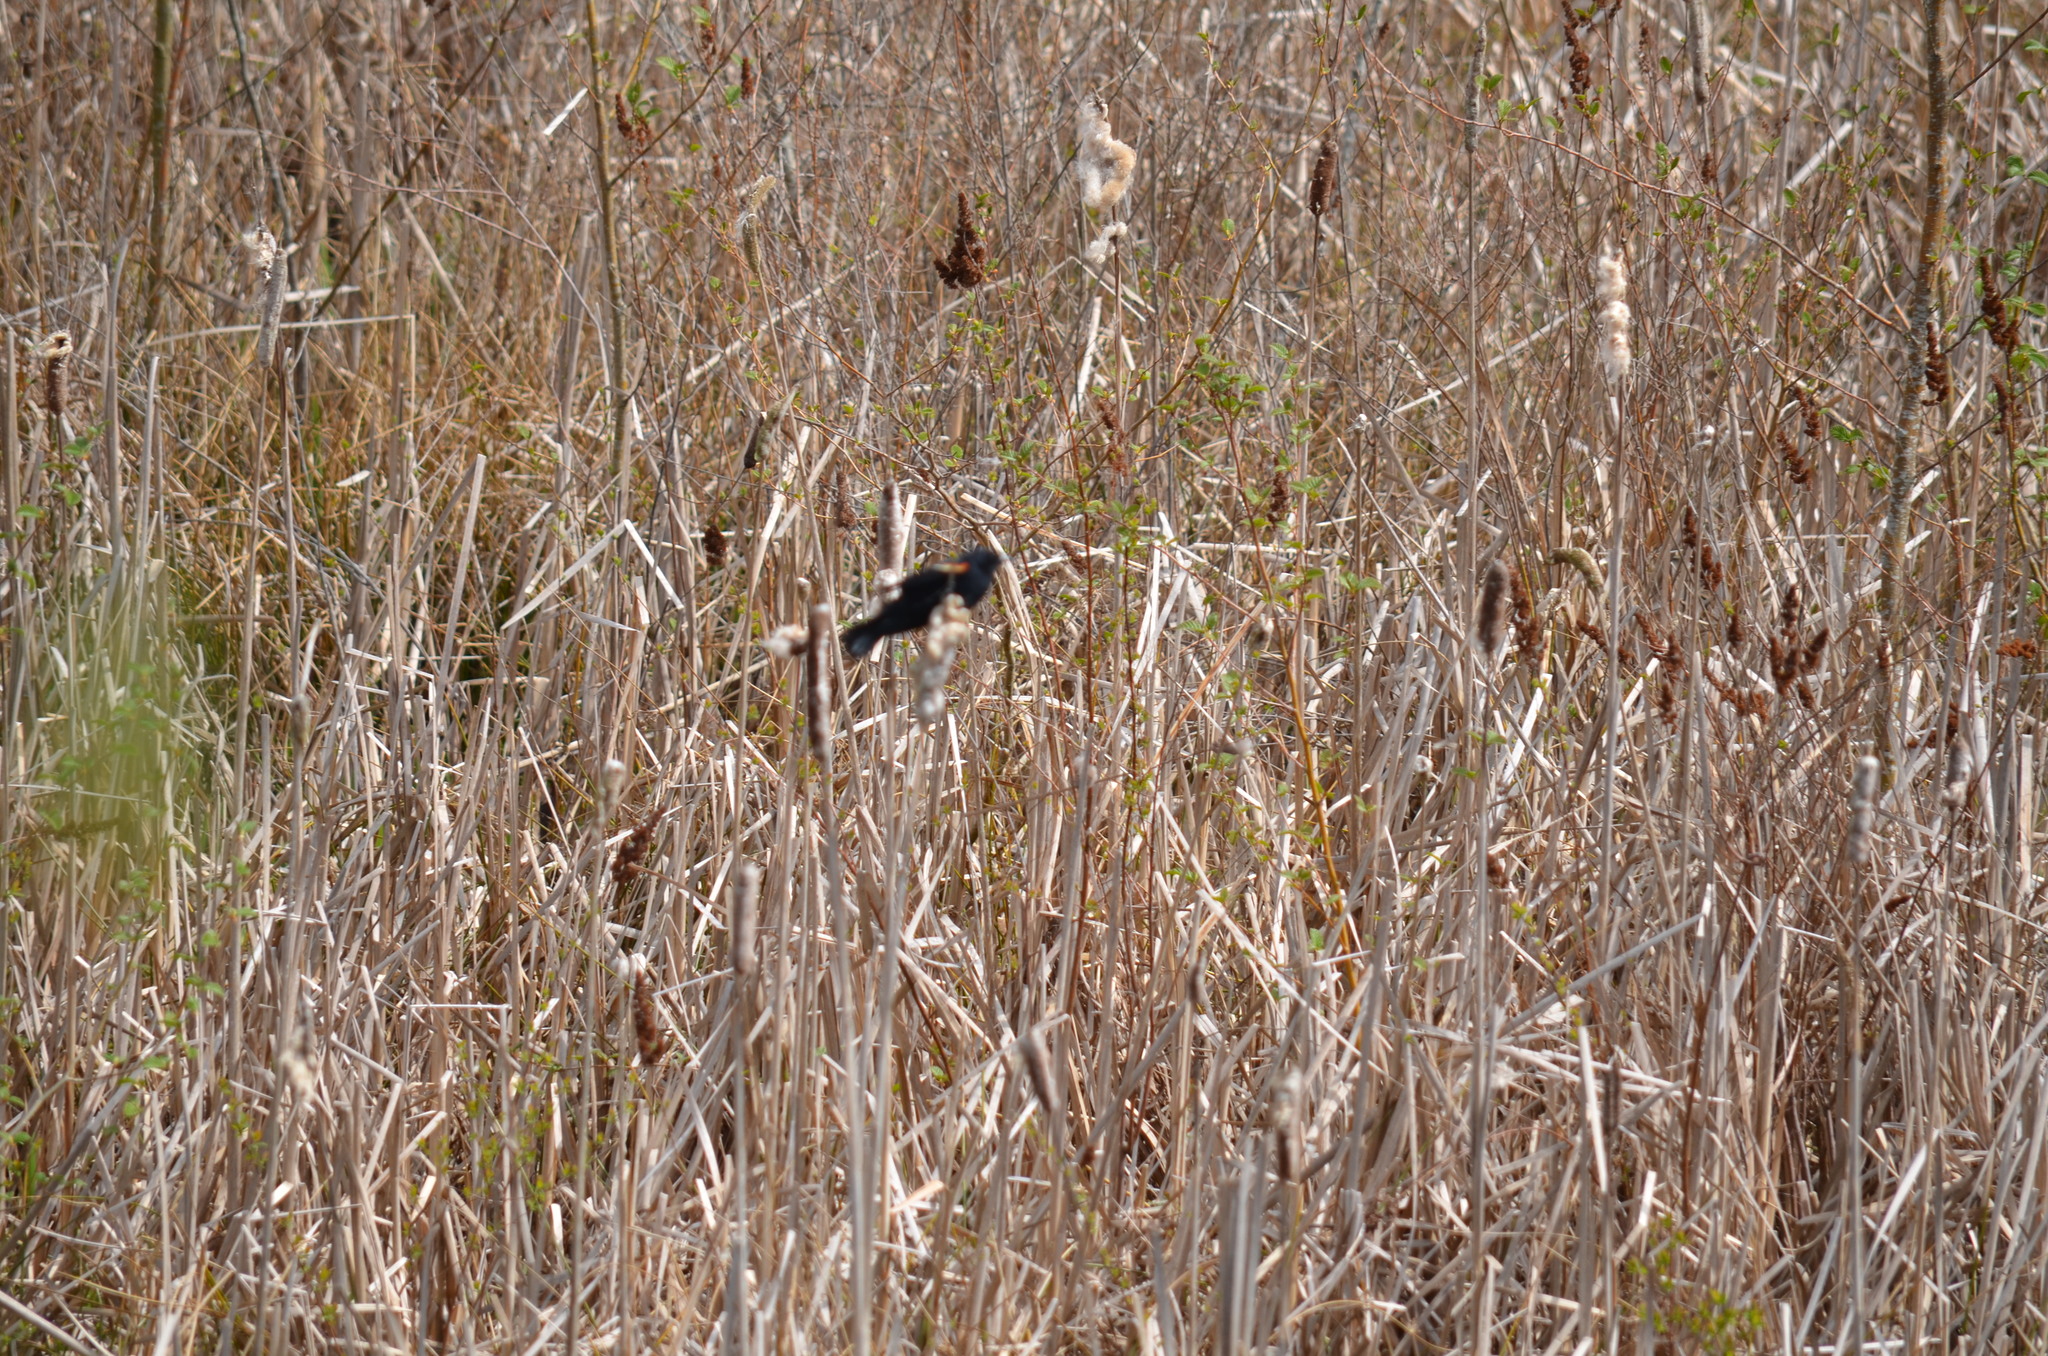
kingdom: Animalia
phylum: Chordata
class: Aves
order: Passeriformes
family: Icteridae
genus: Agelaius
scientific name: Agelaius phoeniceus
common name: Red-winged blackbird
